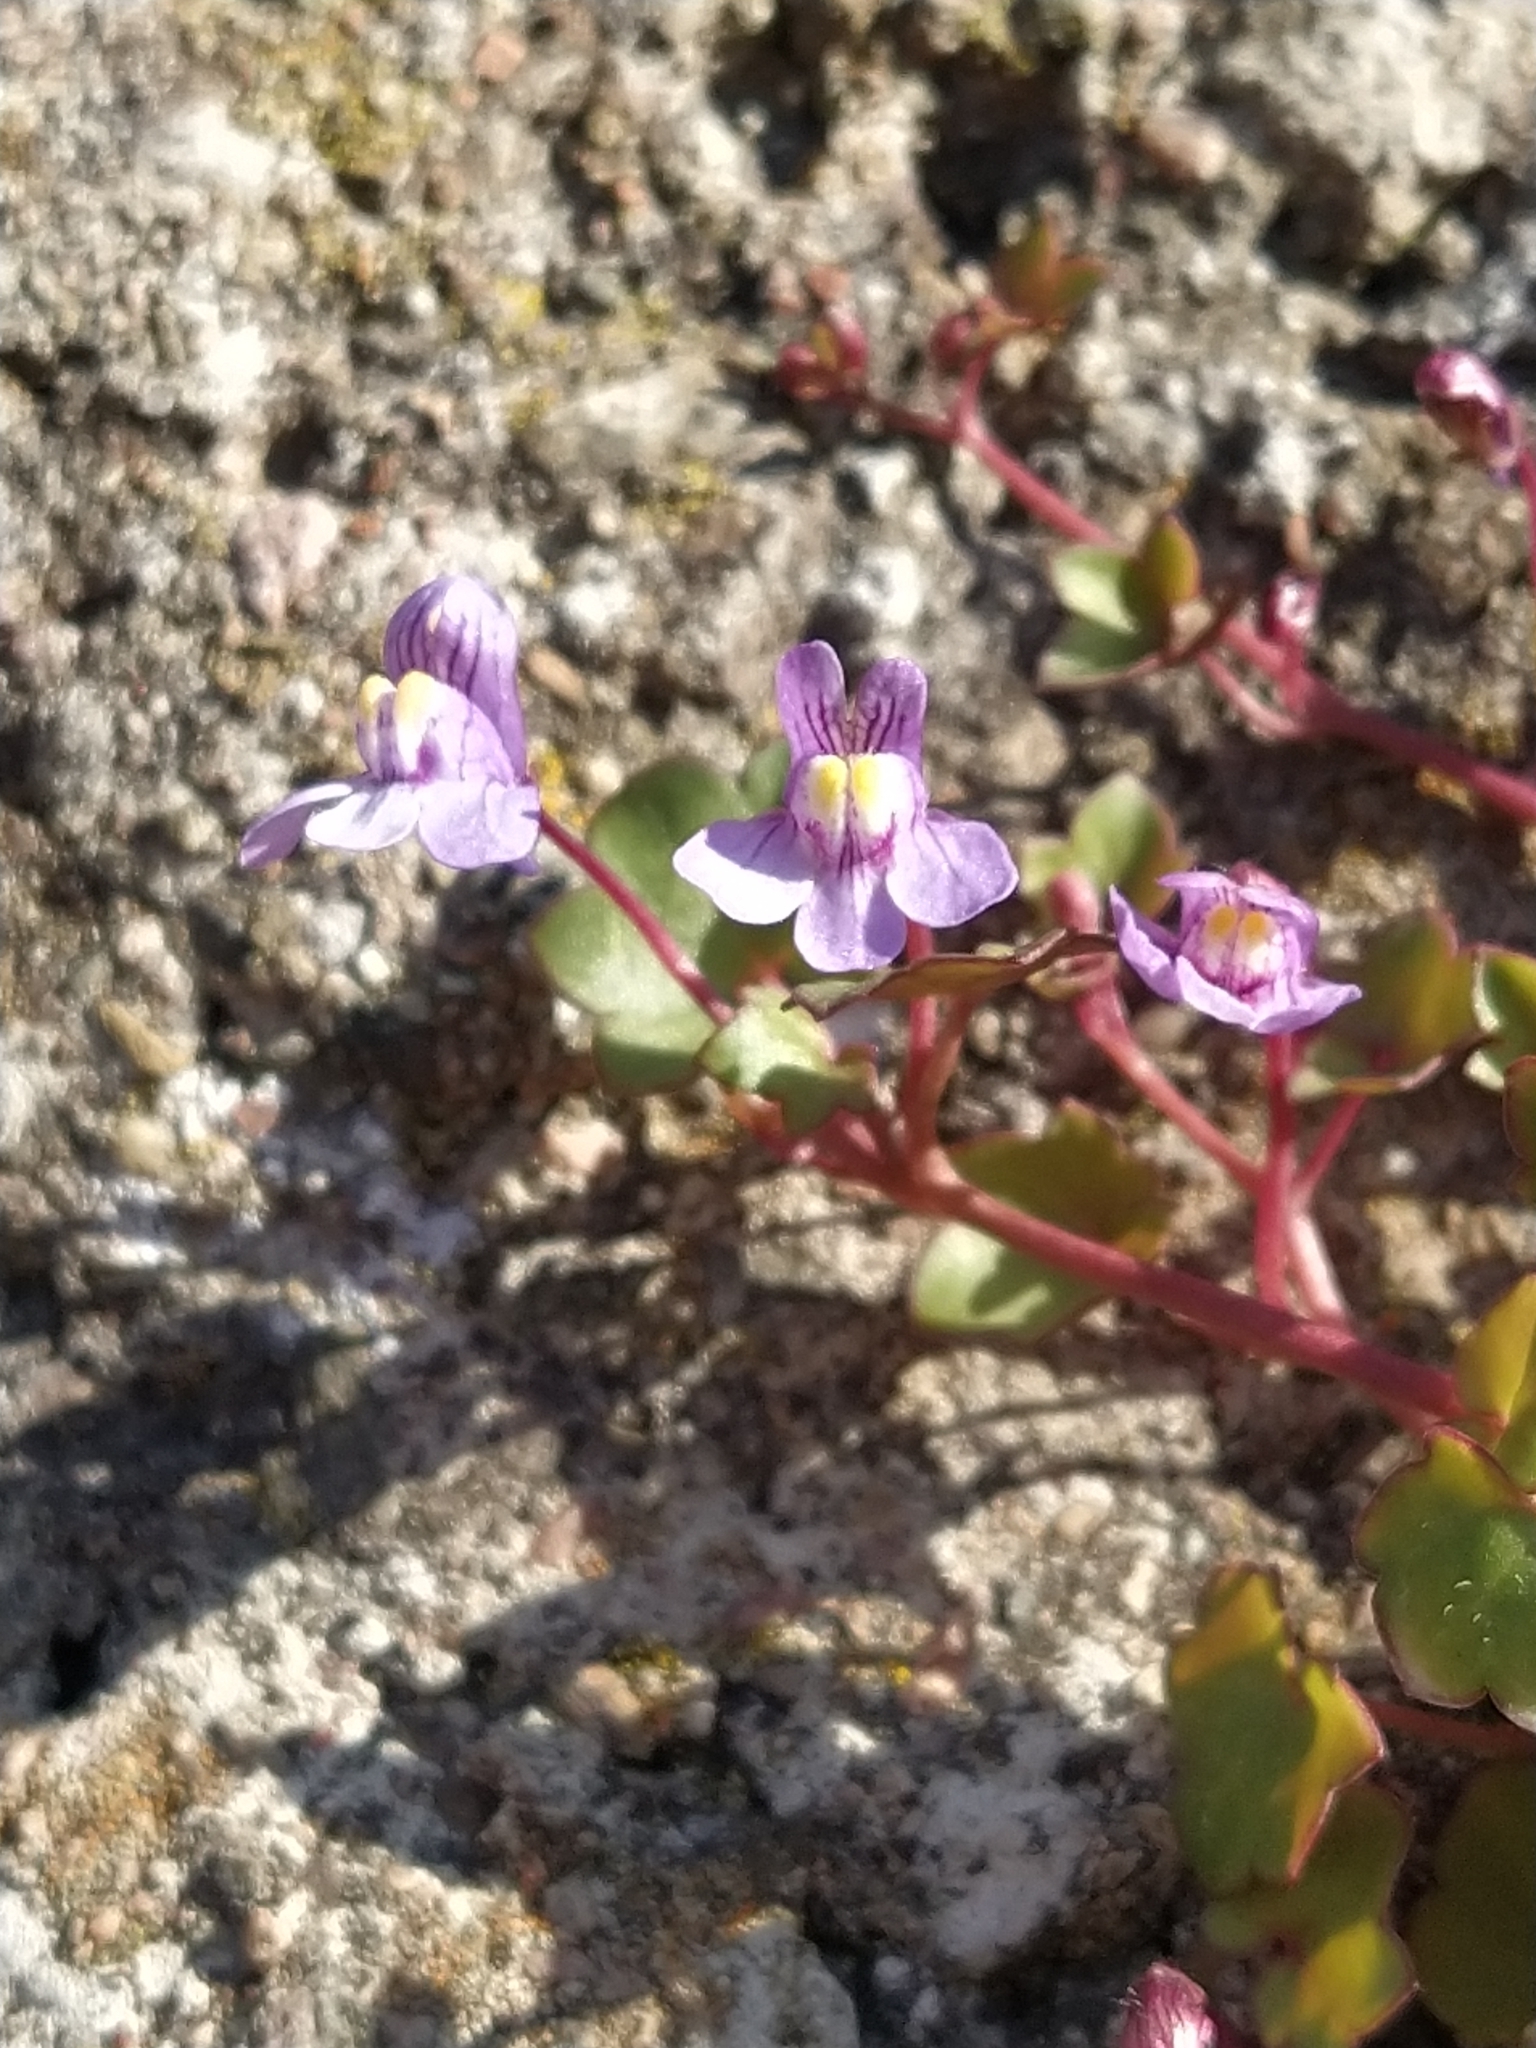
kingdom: Plantae
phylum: Tracheophyta
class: Magnoliopsida
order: Lamiales
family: Plantaginaceae
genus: Cymbalaria
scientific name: Cymbalaria muralis
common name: Ivy-leaved toadflax
